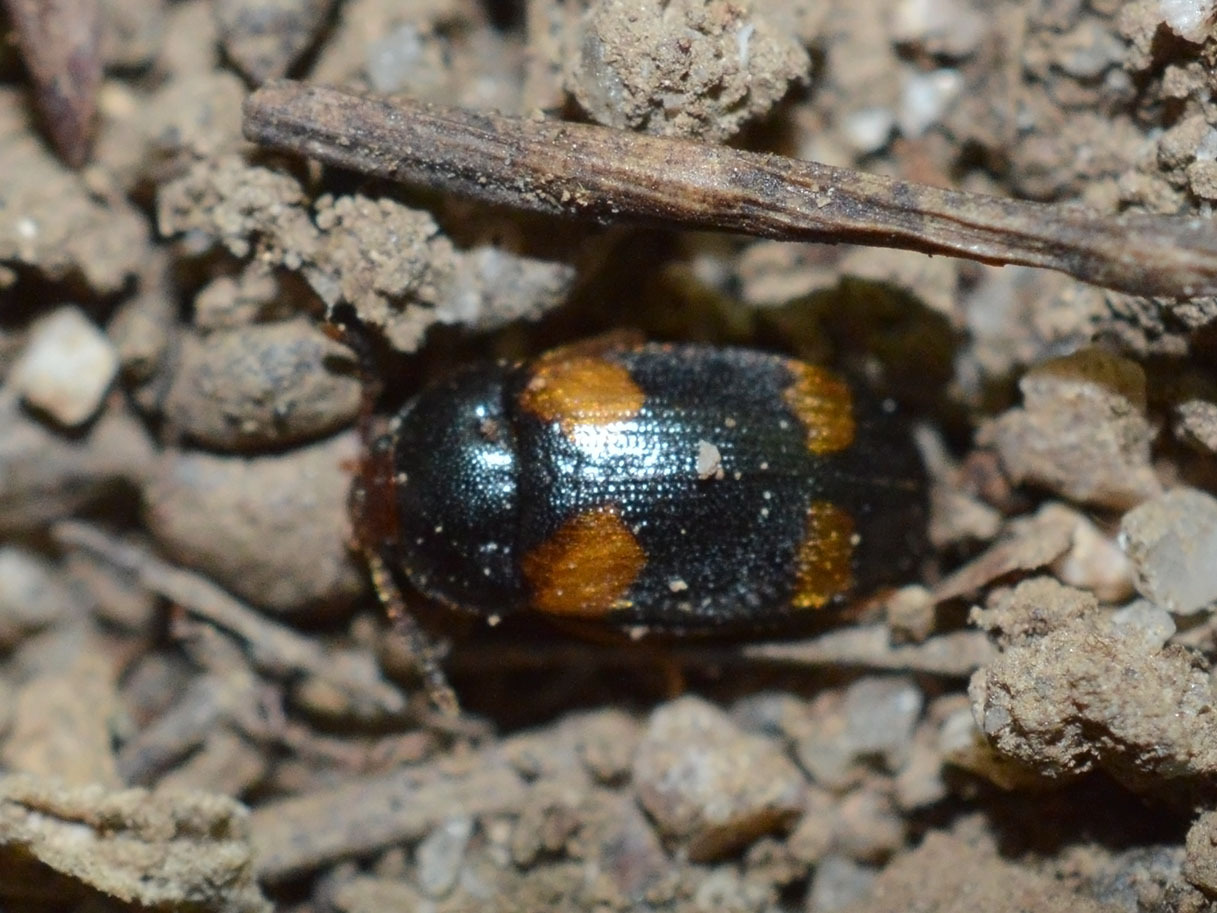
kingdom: Animalia
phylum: Arthropoda
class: Insecta
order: Coleoptera
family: Mycetophagidae
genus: Mycetophagus
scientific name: Mycetophagus quadripustulatus
